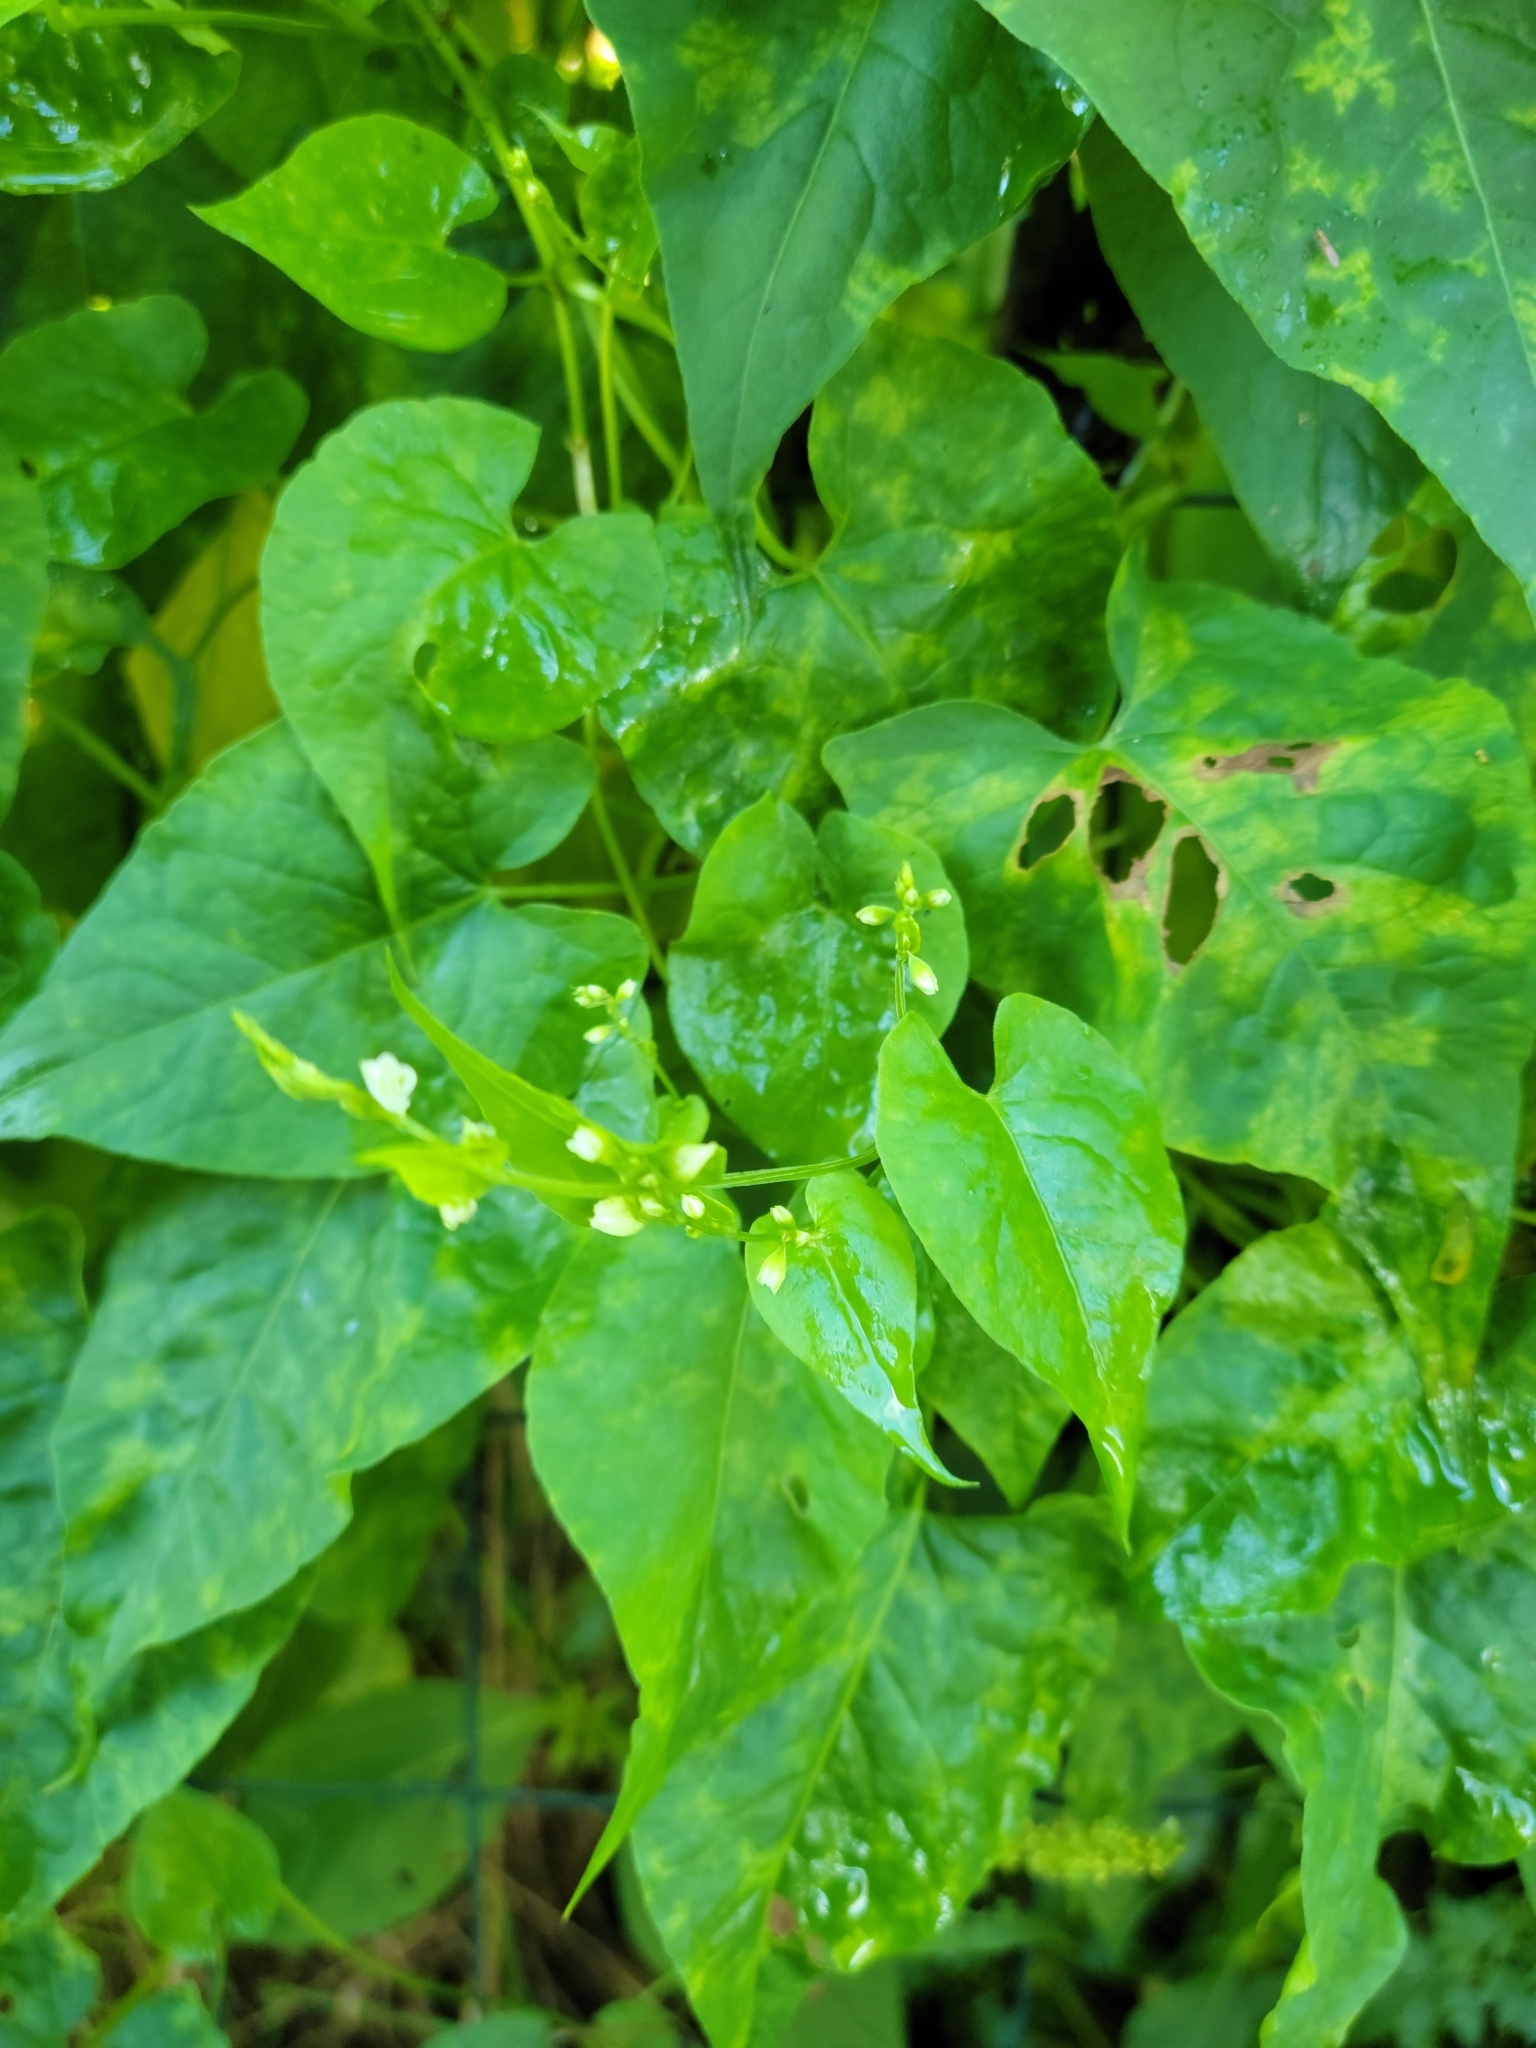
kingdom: Plantae
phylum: Tracheophyta
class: Magnoliopsida
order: Caryophyllales
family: Polygonaceae
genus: Fallopia
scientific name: Fallopia scandens
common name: Climbing false buckwheat
